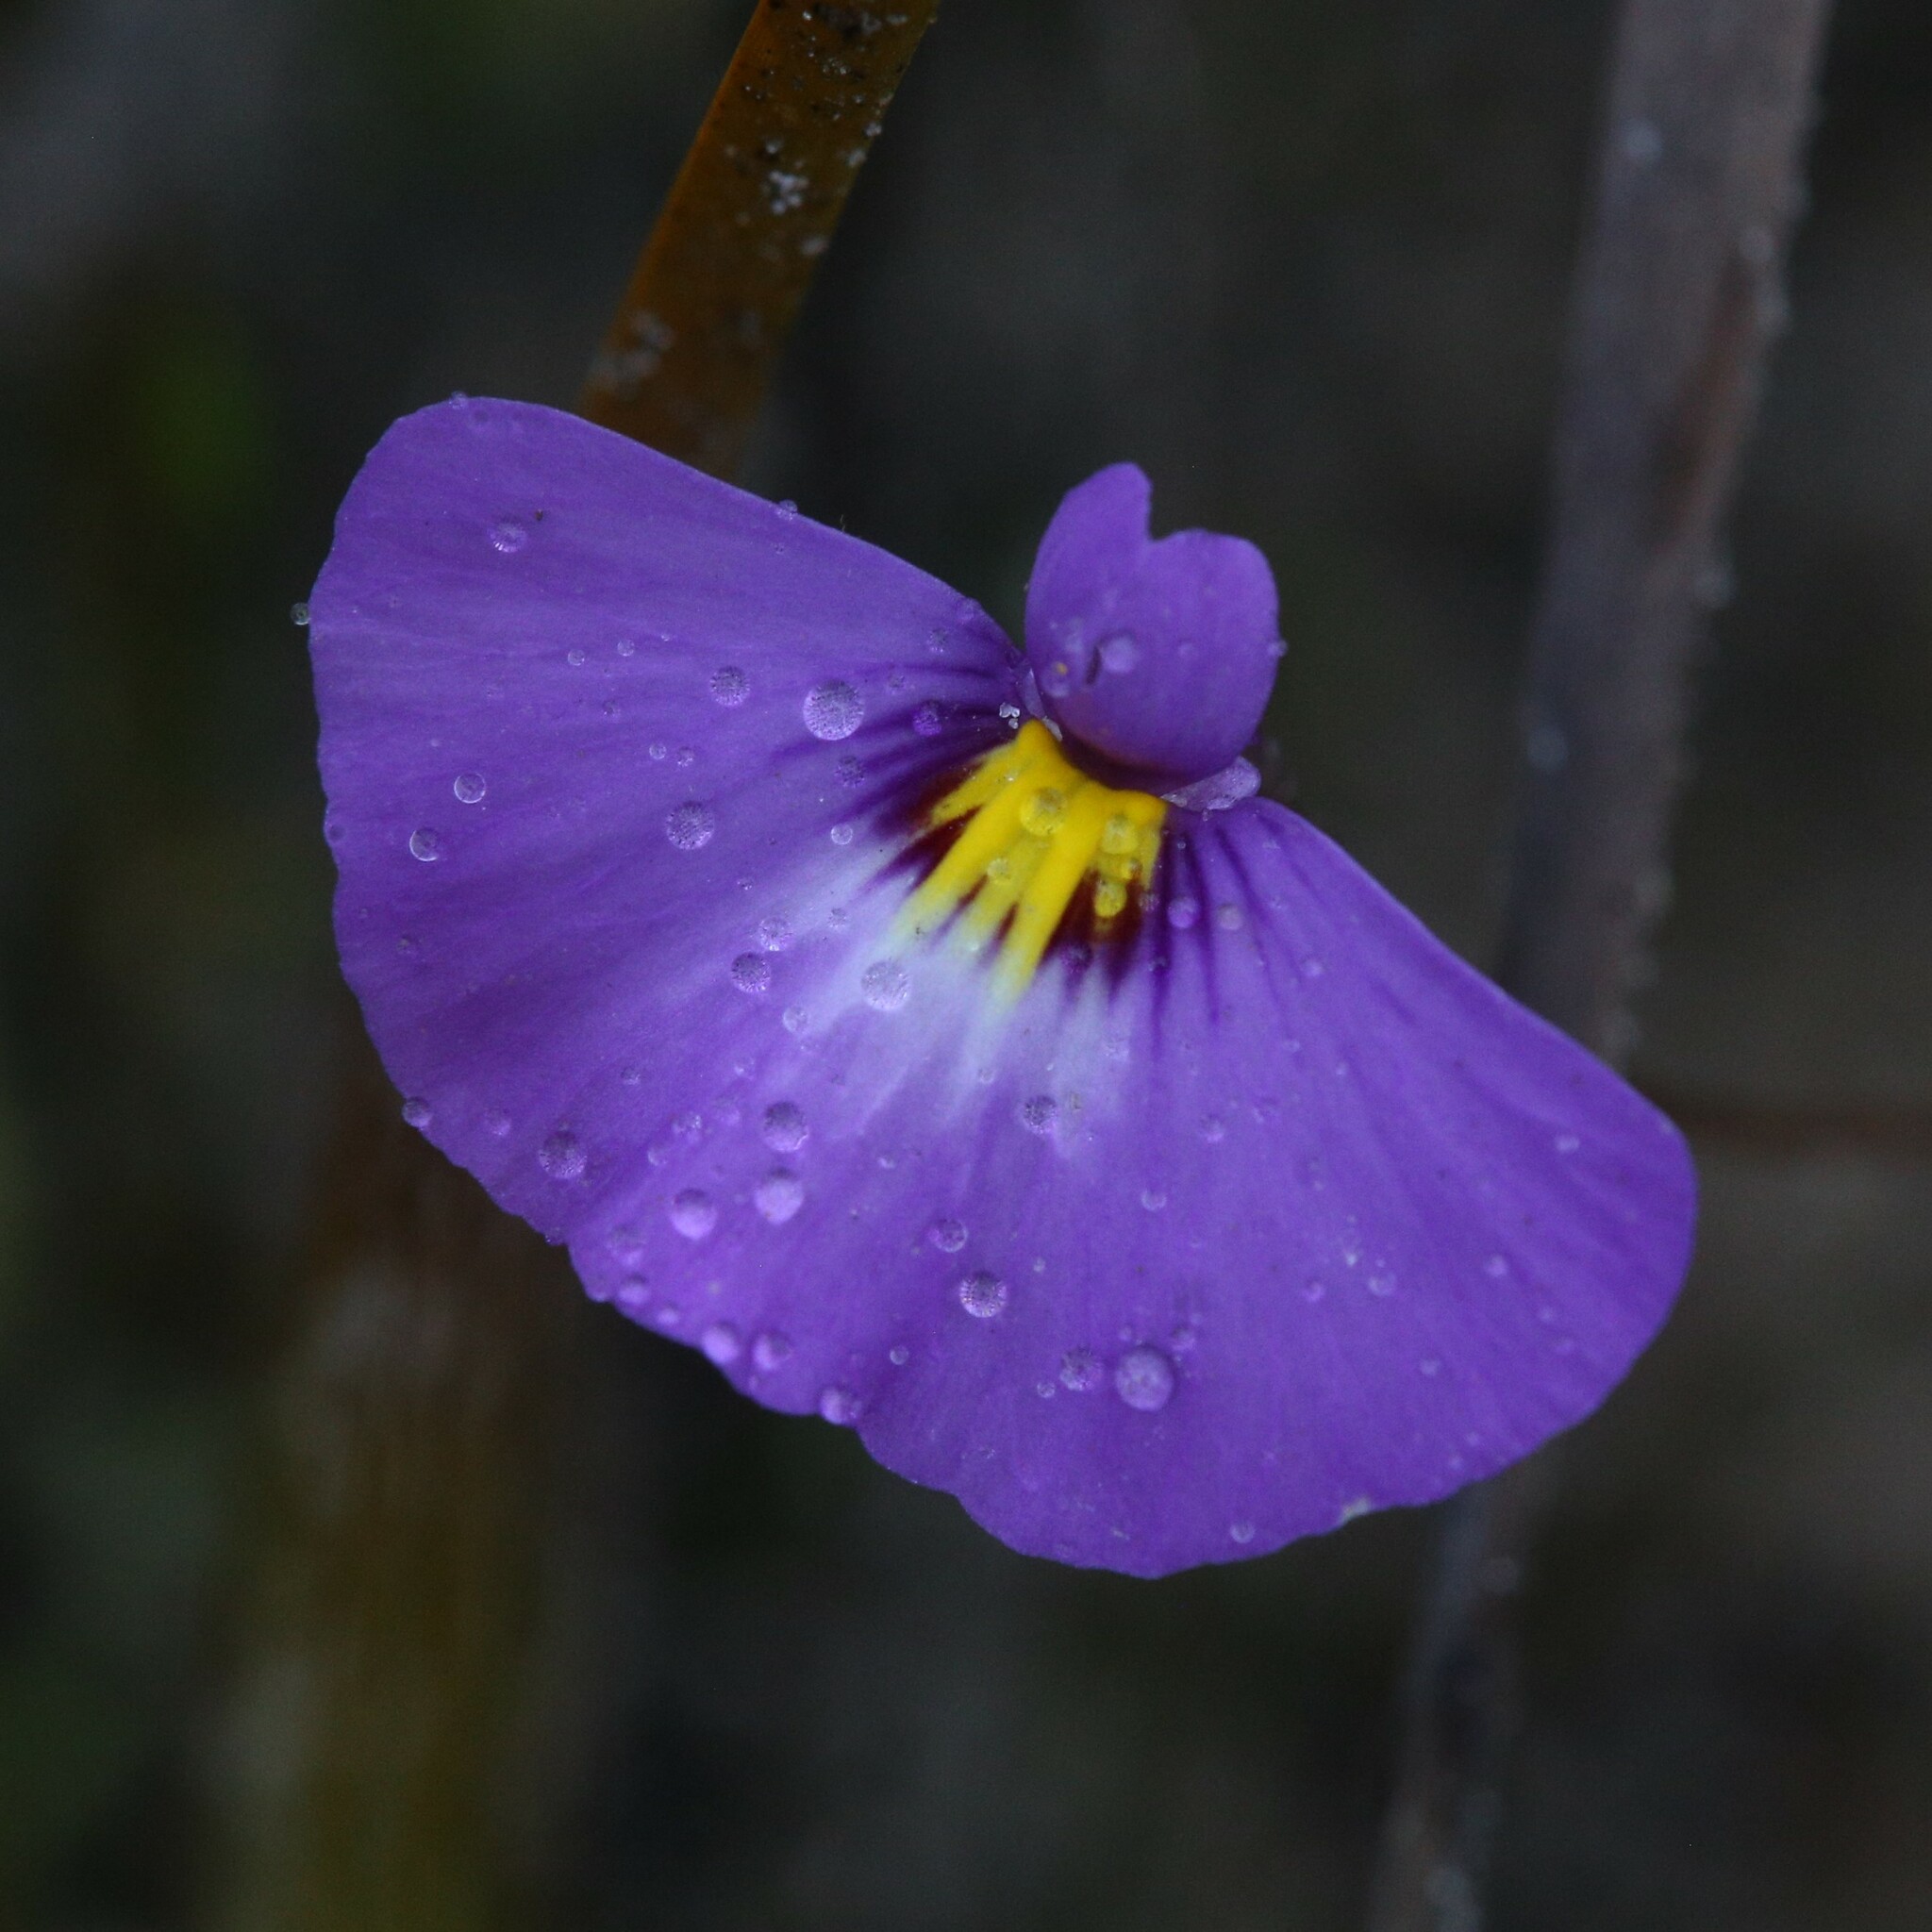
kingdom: Plantae
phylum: Tracheophyta
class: Magnoliopsida
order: Lamiales
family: Lentibulariaceae
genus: Utricularia
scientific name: Utricularia petertaylorii
